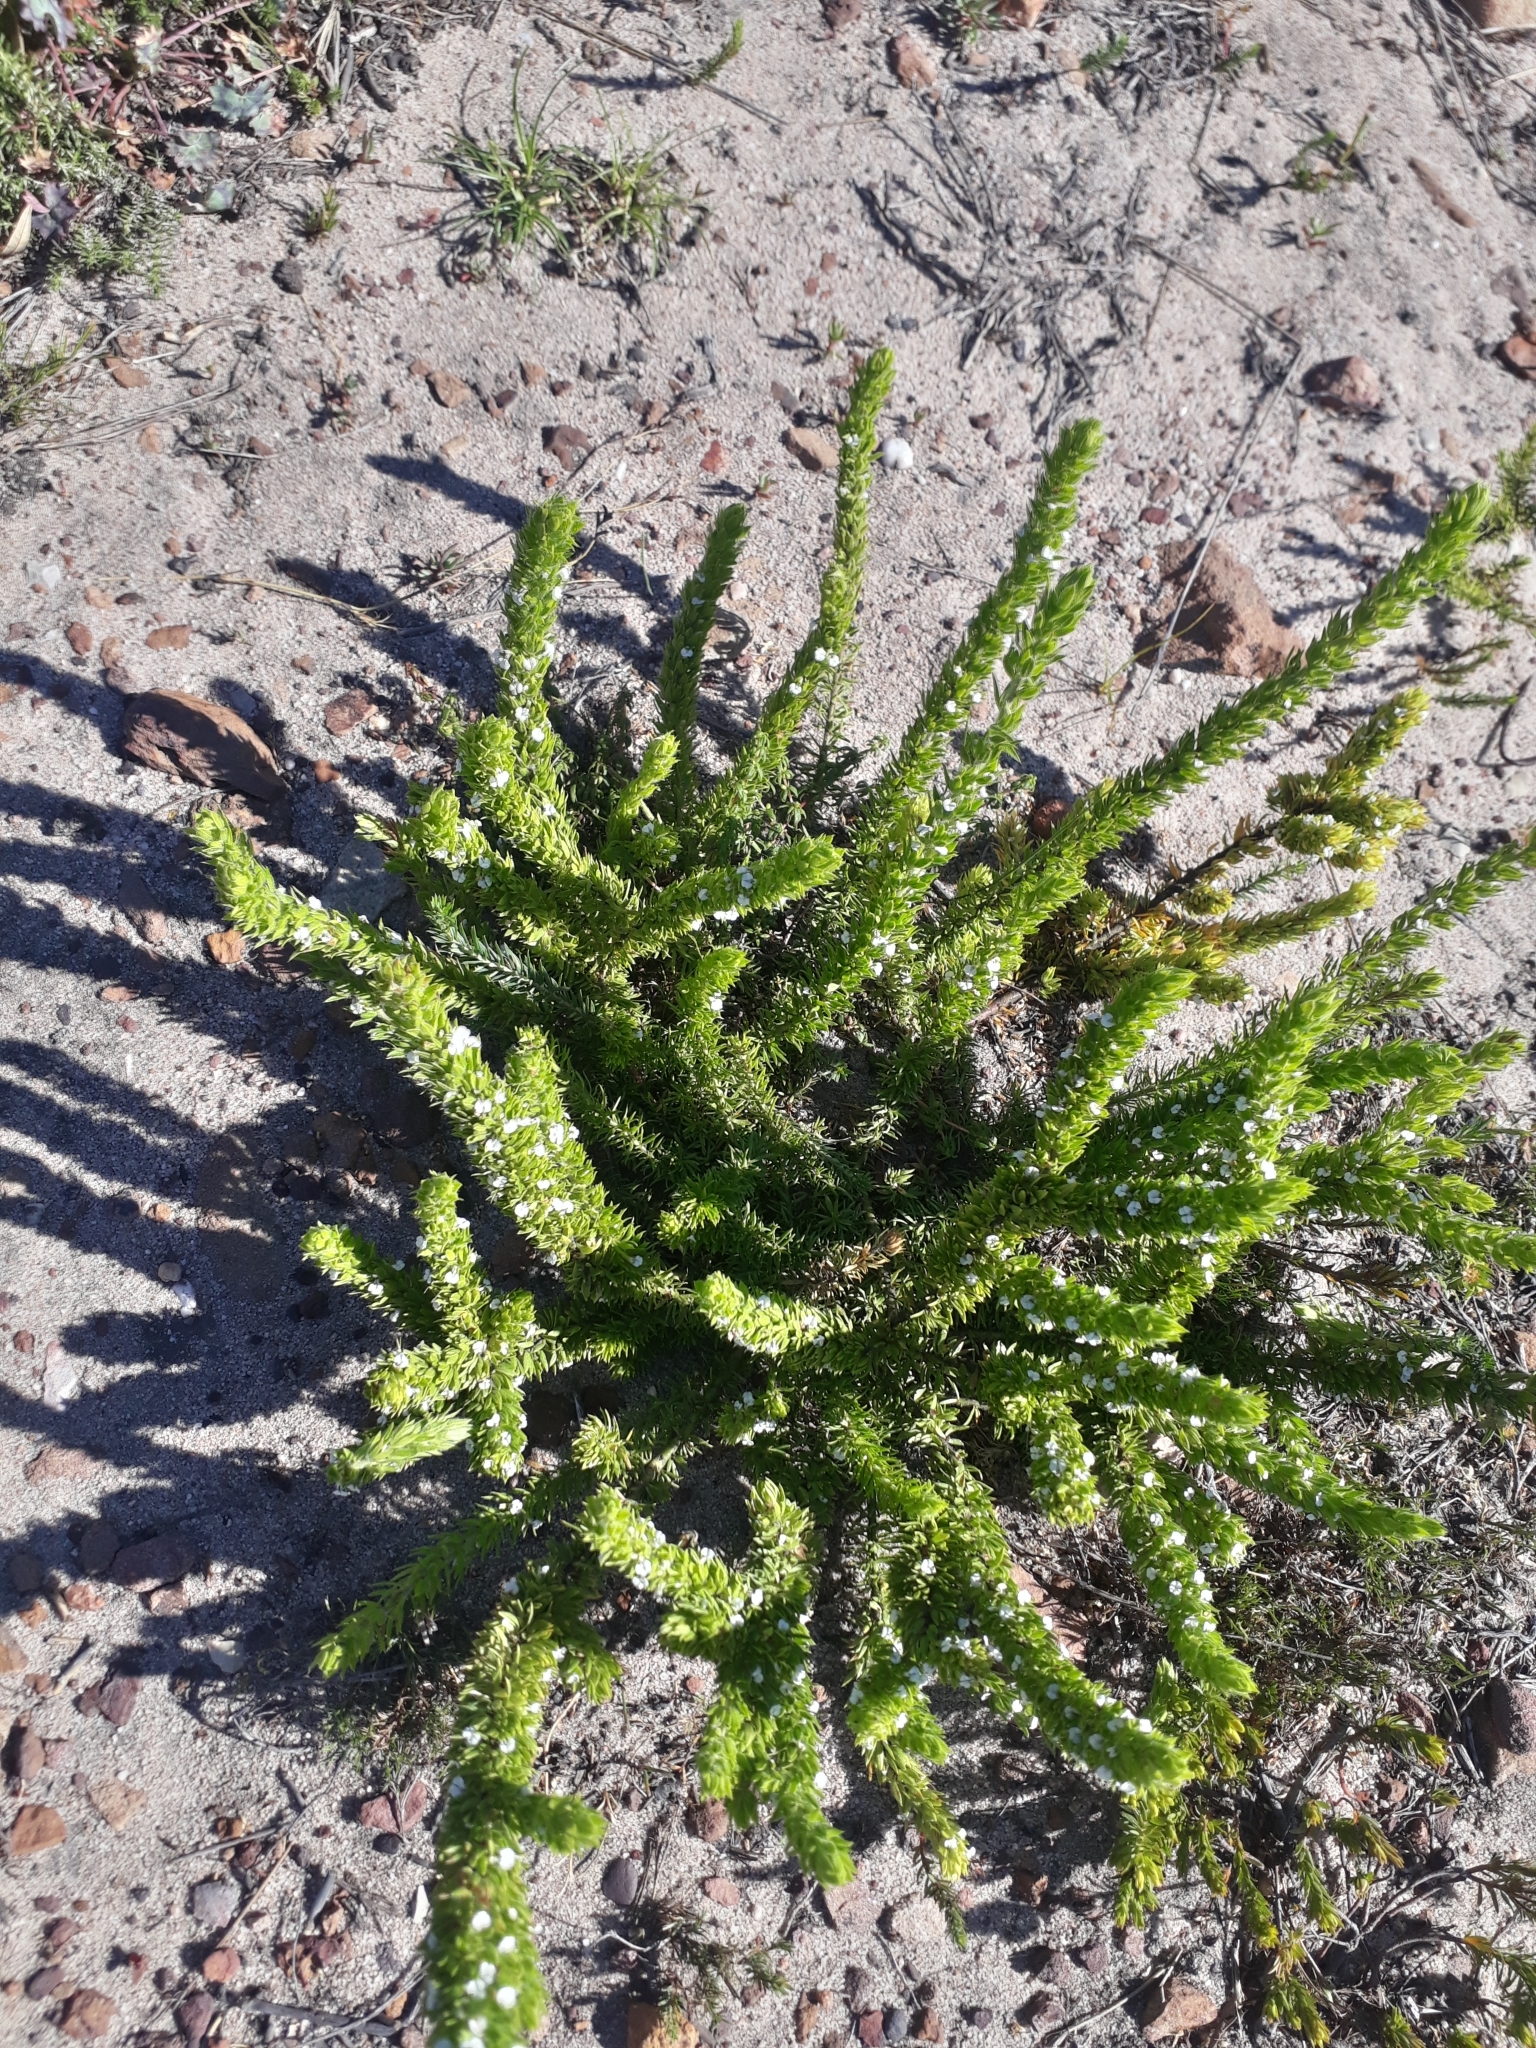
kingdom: Plantae
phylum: Tracheophyta
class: Magnoliopsida
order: Fabales
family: Polygalaceae
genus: Muraltia
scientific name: Muraltia alba
